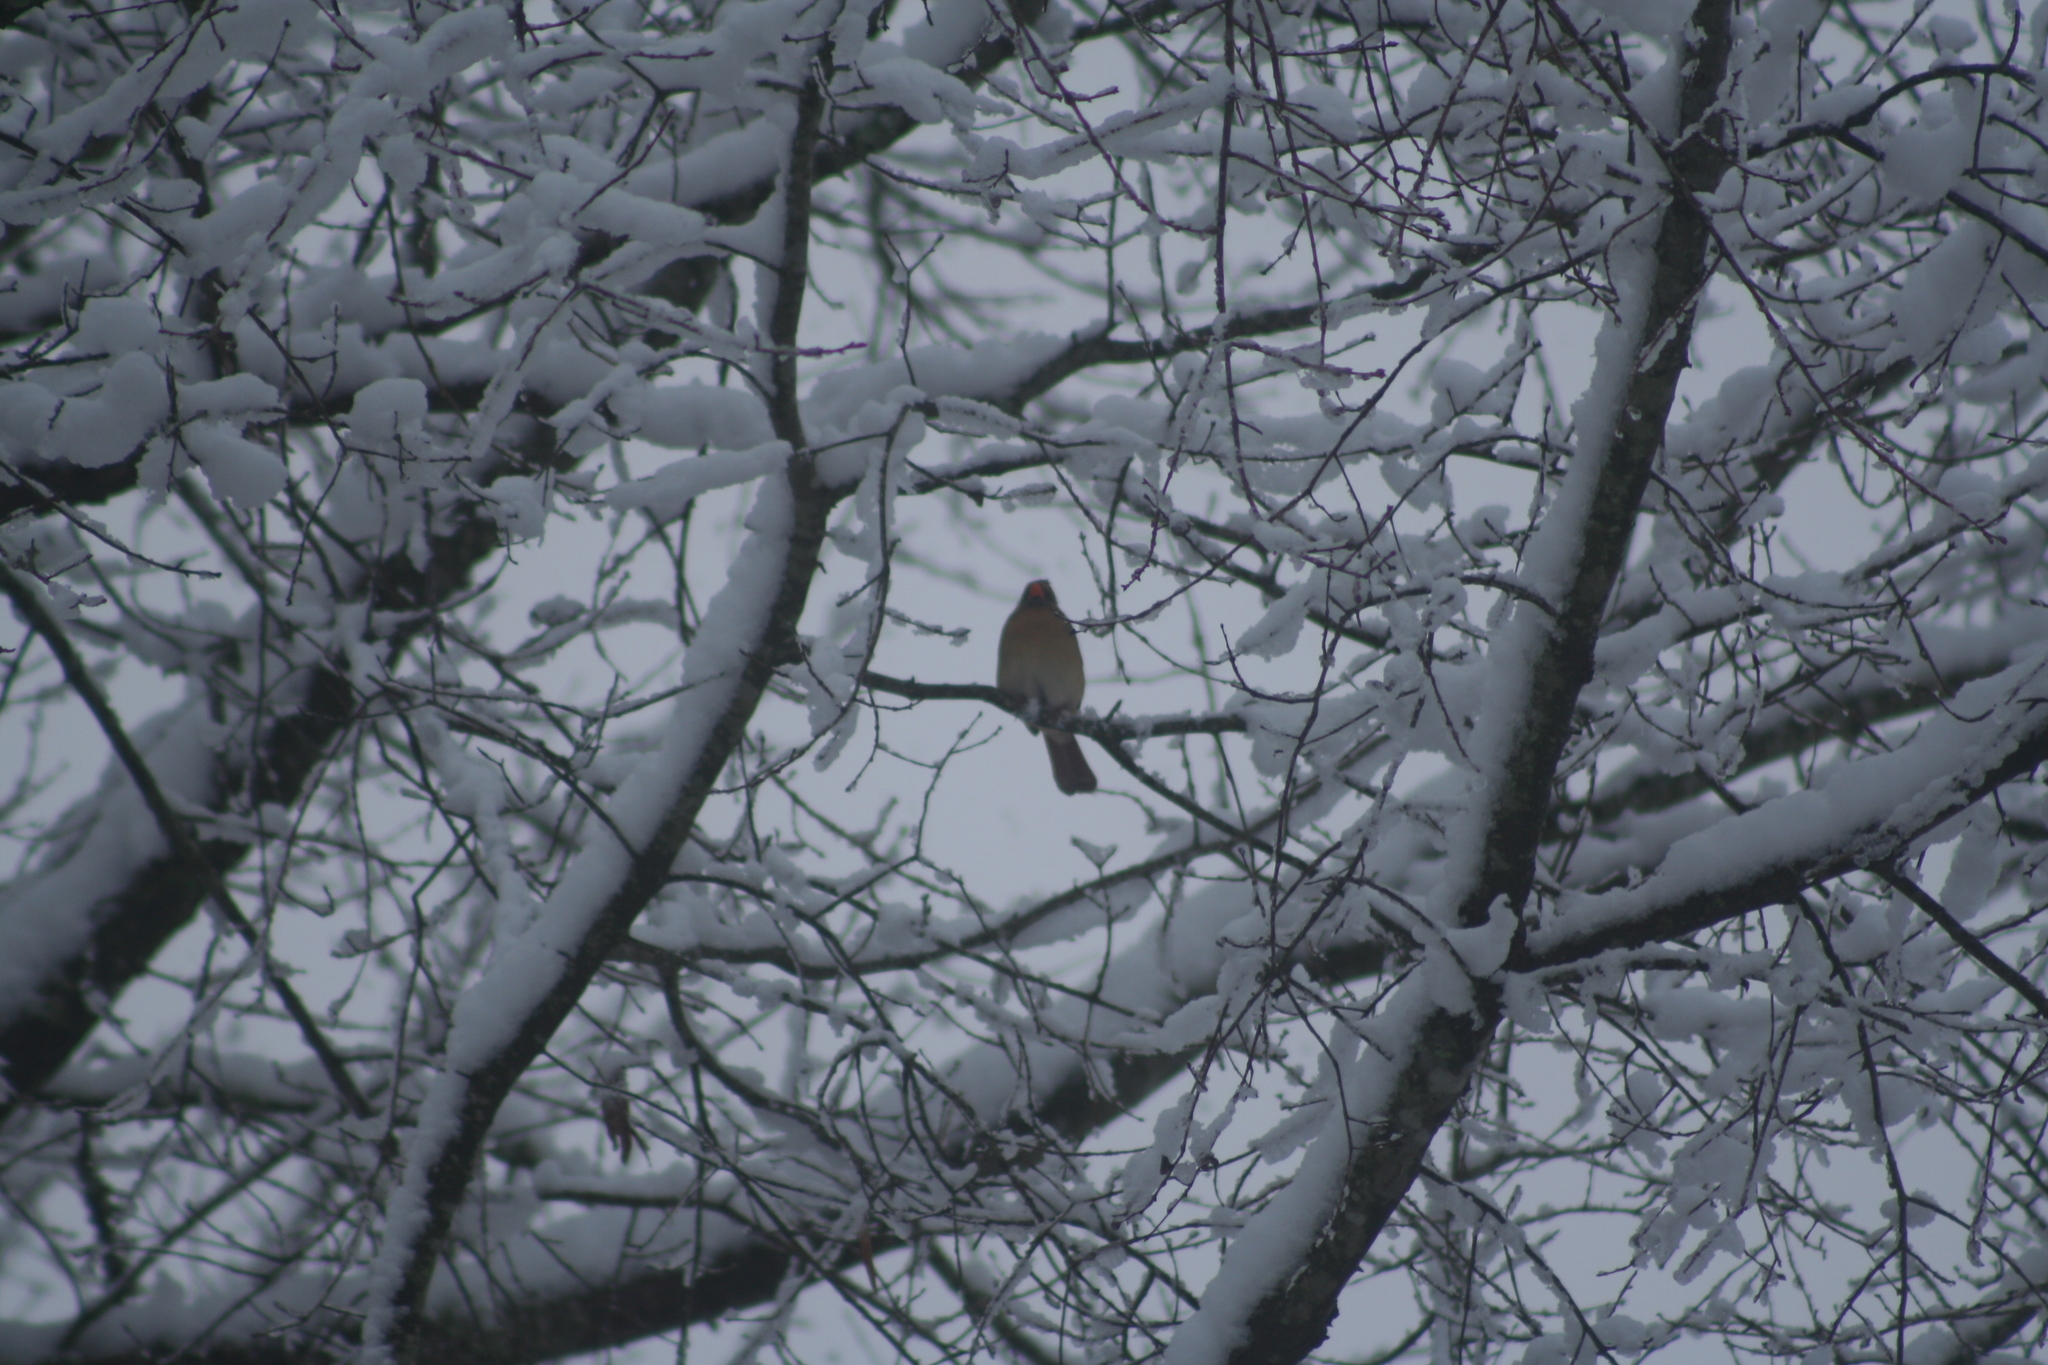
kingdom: Animalia
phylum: Chordata
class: Aves
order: Passeriformes
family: Cardinalidae
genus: Cardinalis
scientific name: Cardinalis cardinalis
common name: Northern cardinal
